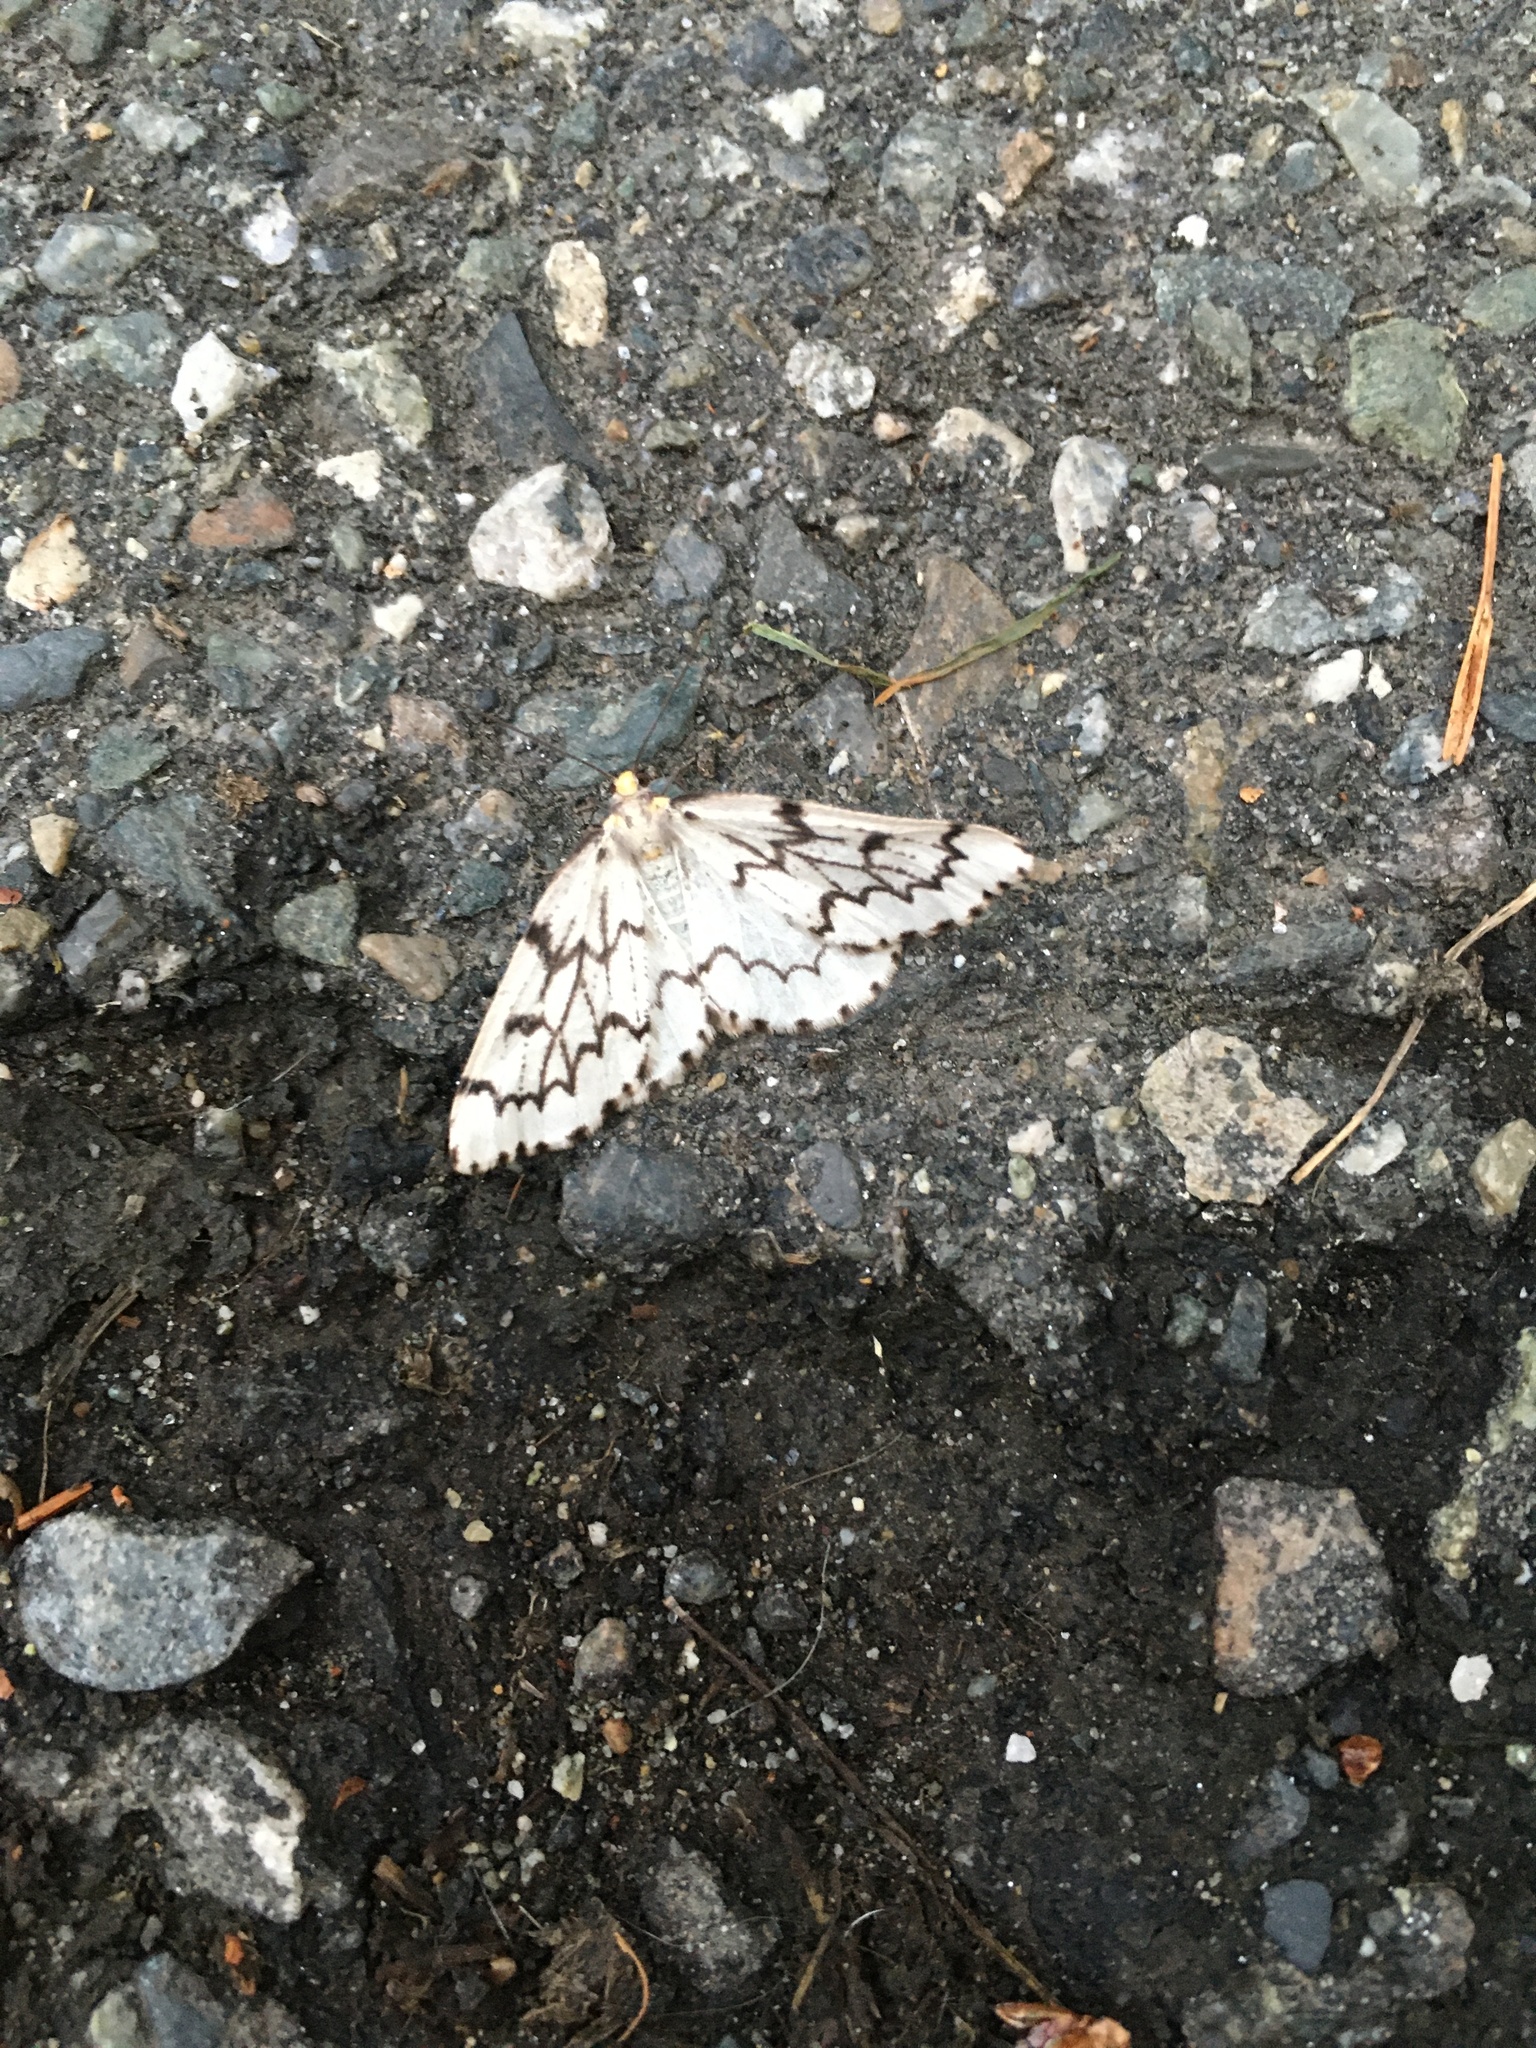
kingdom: Animalia
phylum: Arthropoda
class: Insecta
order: Lepidoptera
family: Geometridae
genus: Nepytia
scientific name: Nepytia phantasmaria
